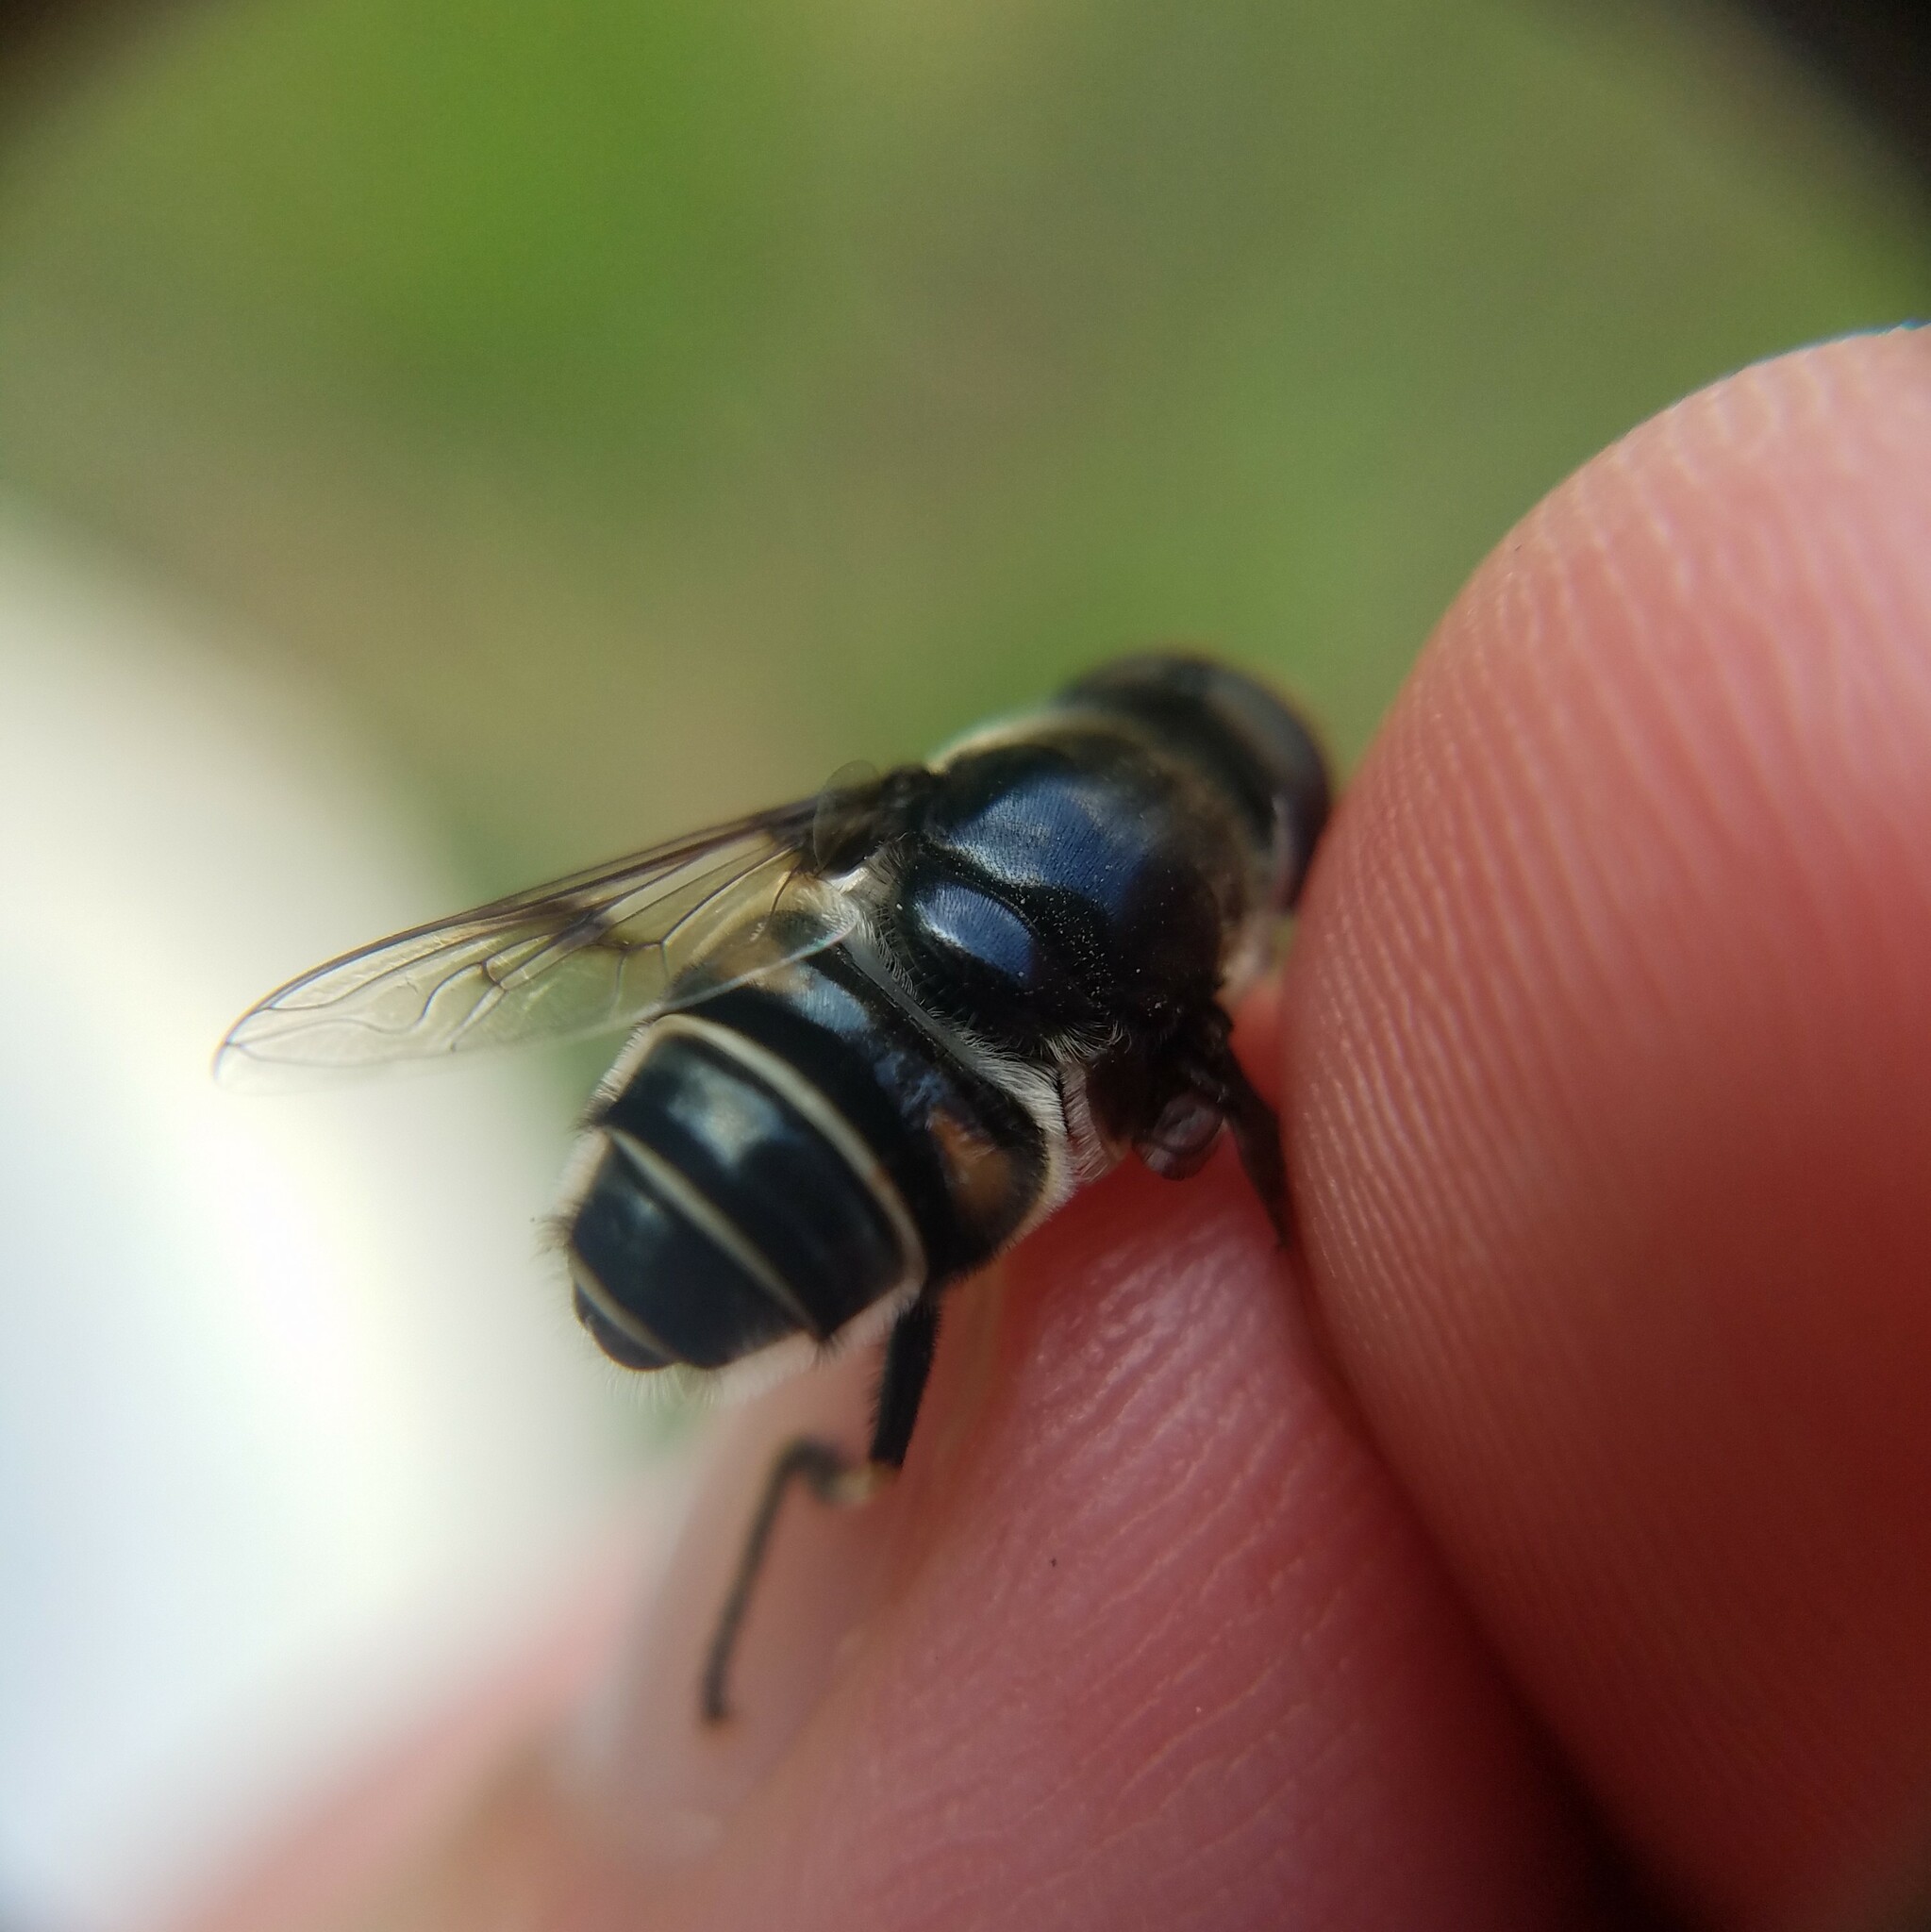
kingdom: Animalia
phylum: Arthropoda
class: Insecta
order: Diptera
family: Syrphidae
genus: Eristalis
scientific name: Eristalis saxorum
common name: Blue-polished drone fly
